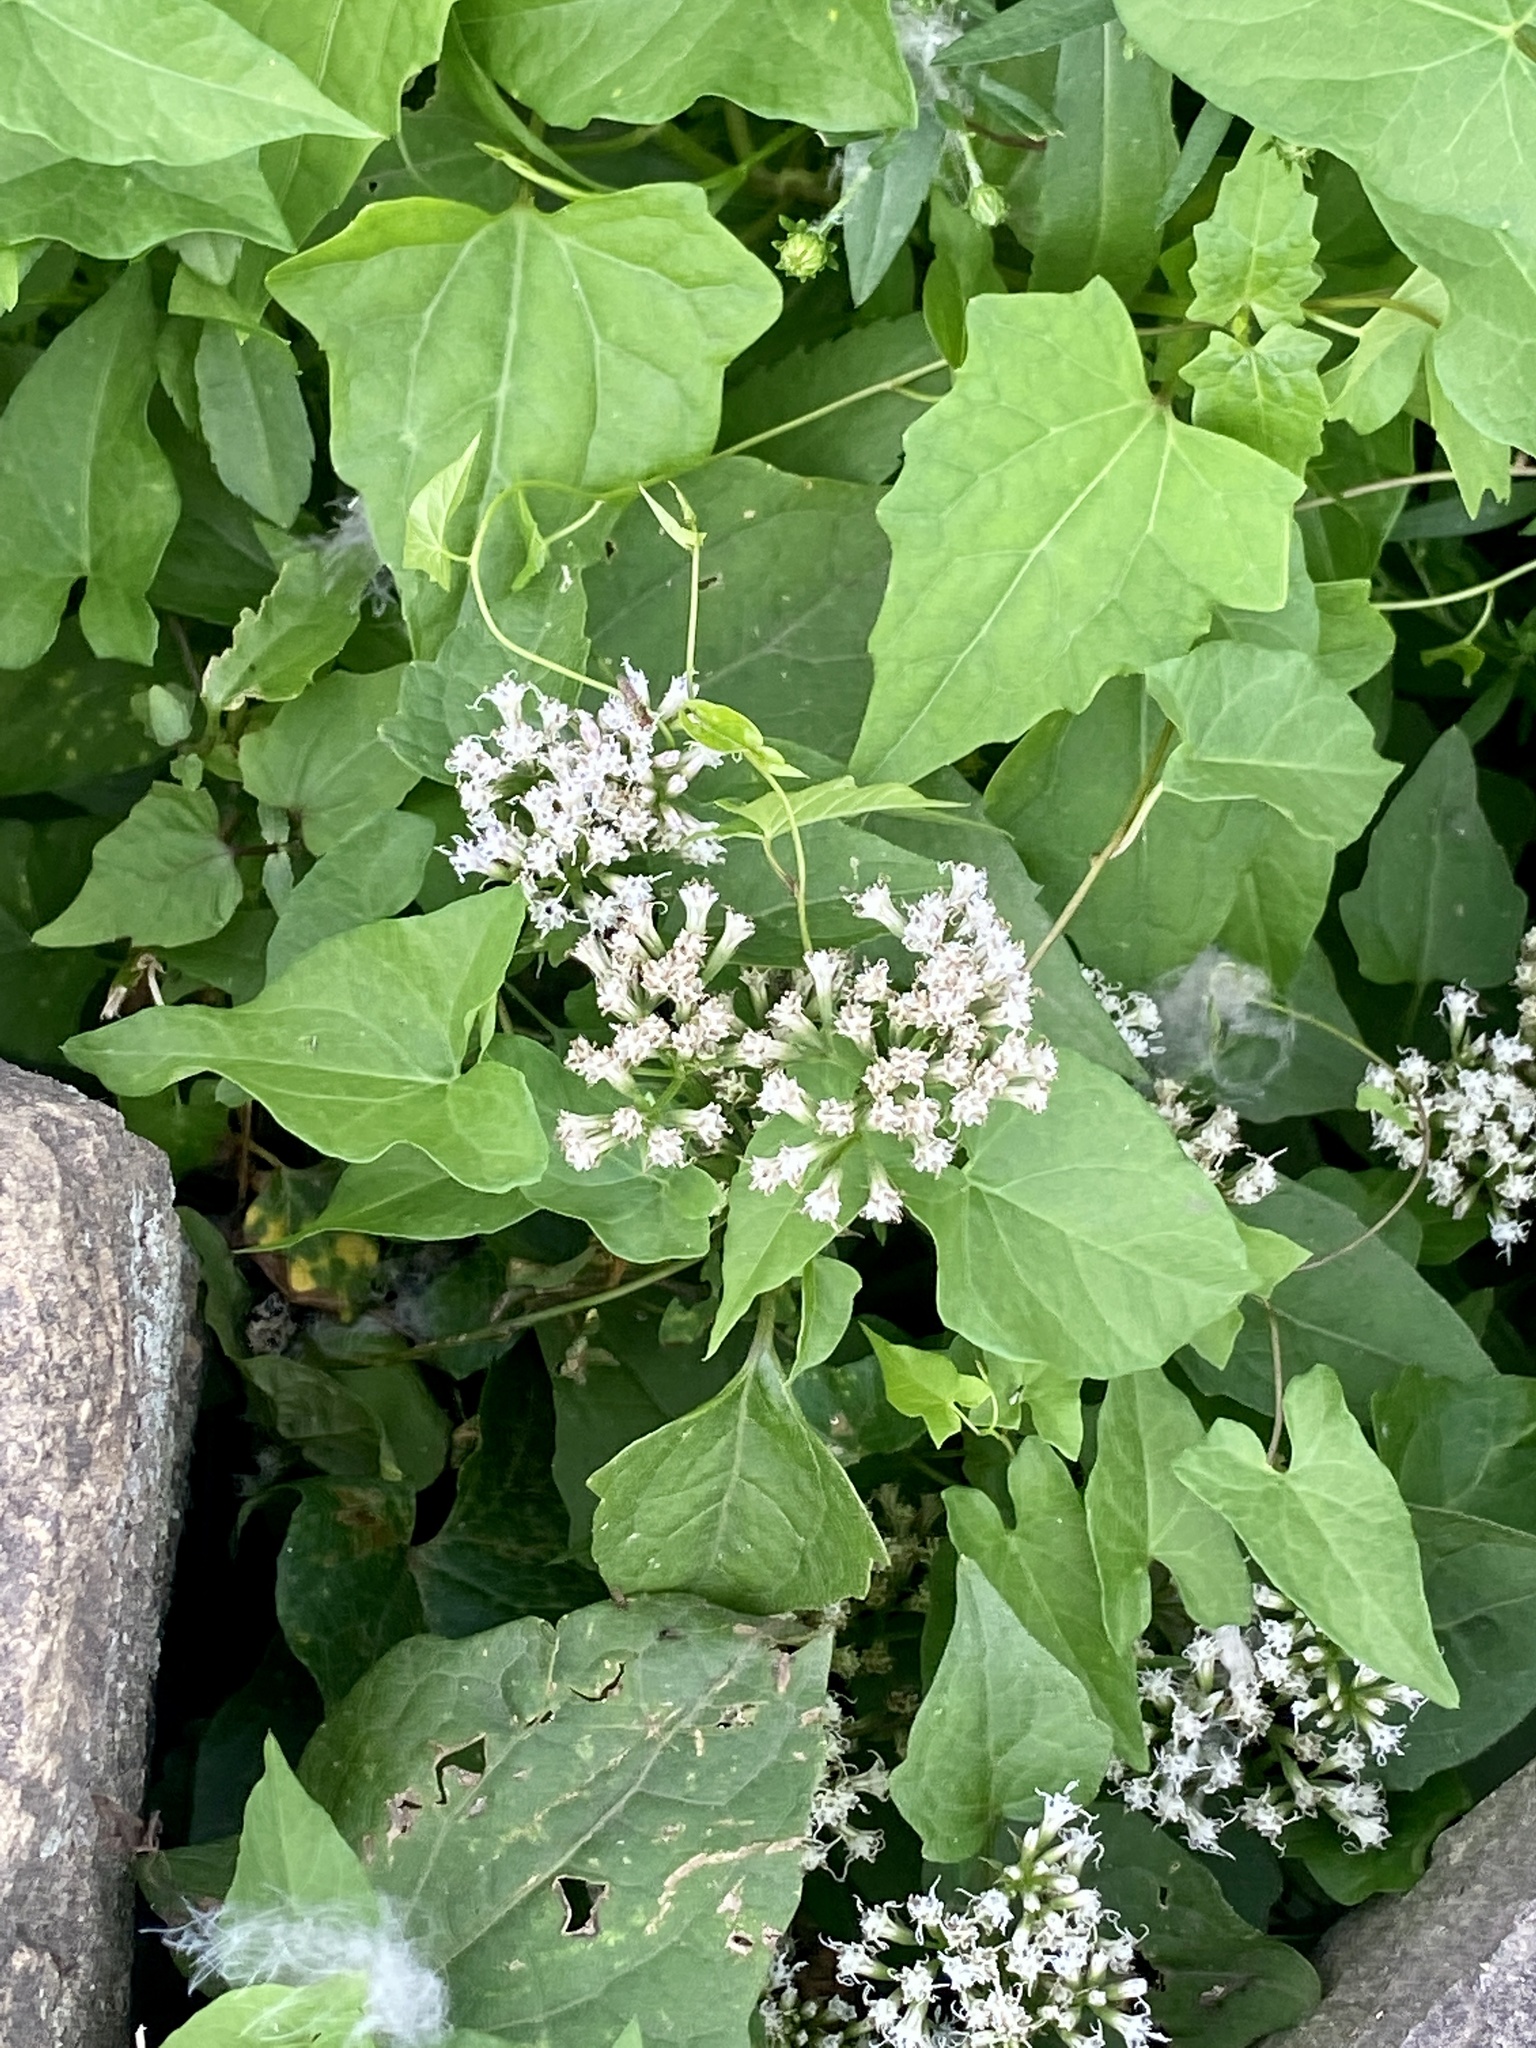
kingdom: Plantae
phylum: Tracheophyta
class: Magnoliopsida
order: Asterales
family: Asteraceae
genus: Mikania
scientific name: Mikania scandens
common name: Climbing hempvine
